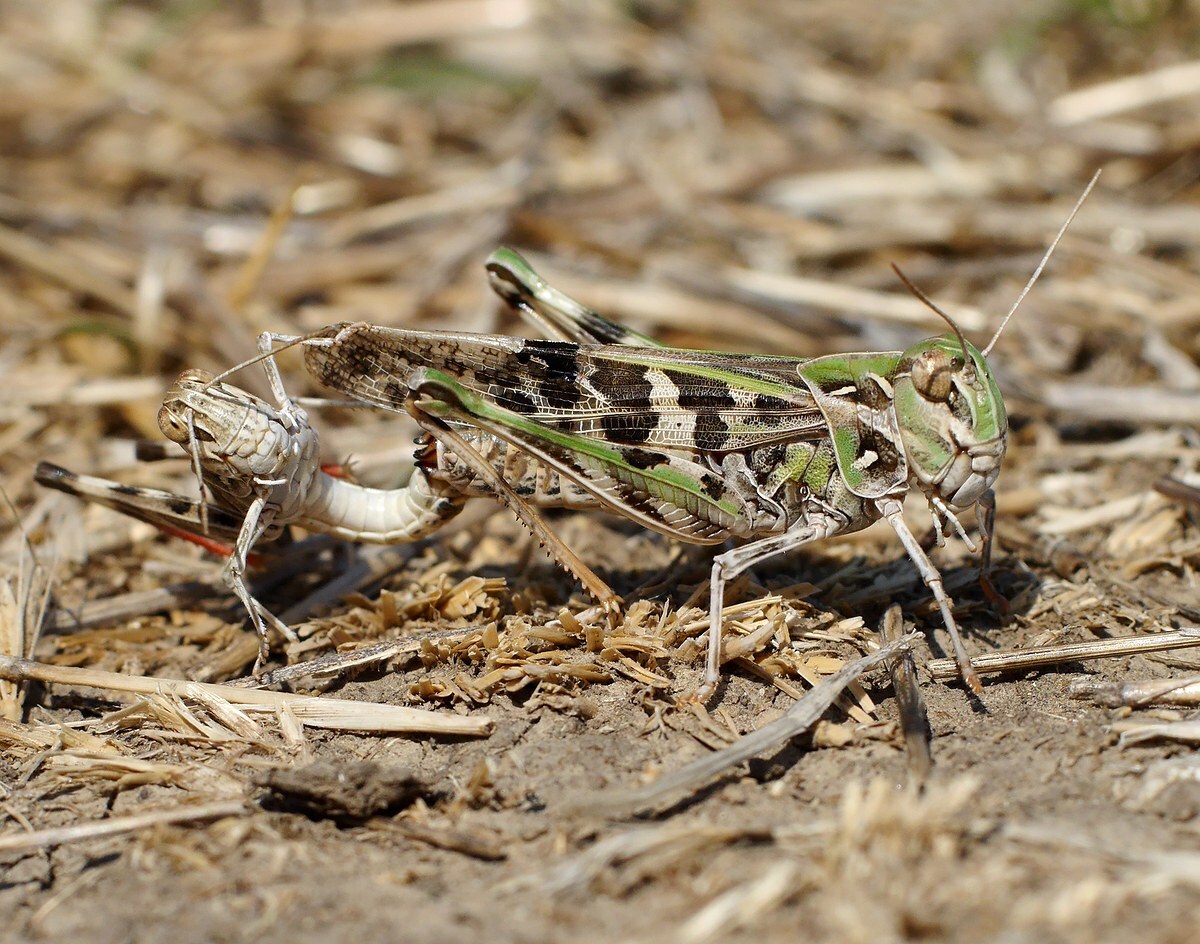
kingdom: Animalia
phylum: Arthropoda
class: Insecta
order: Orthoptera
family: Acrididae
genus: Oedaleus
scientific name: Oedaleus decorus
